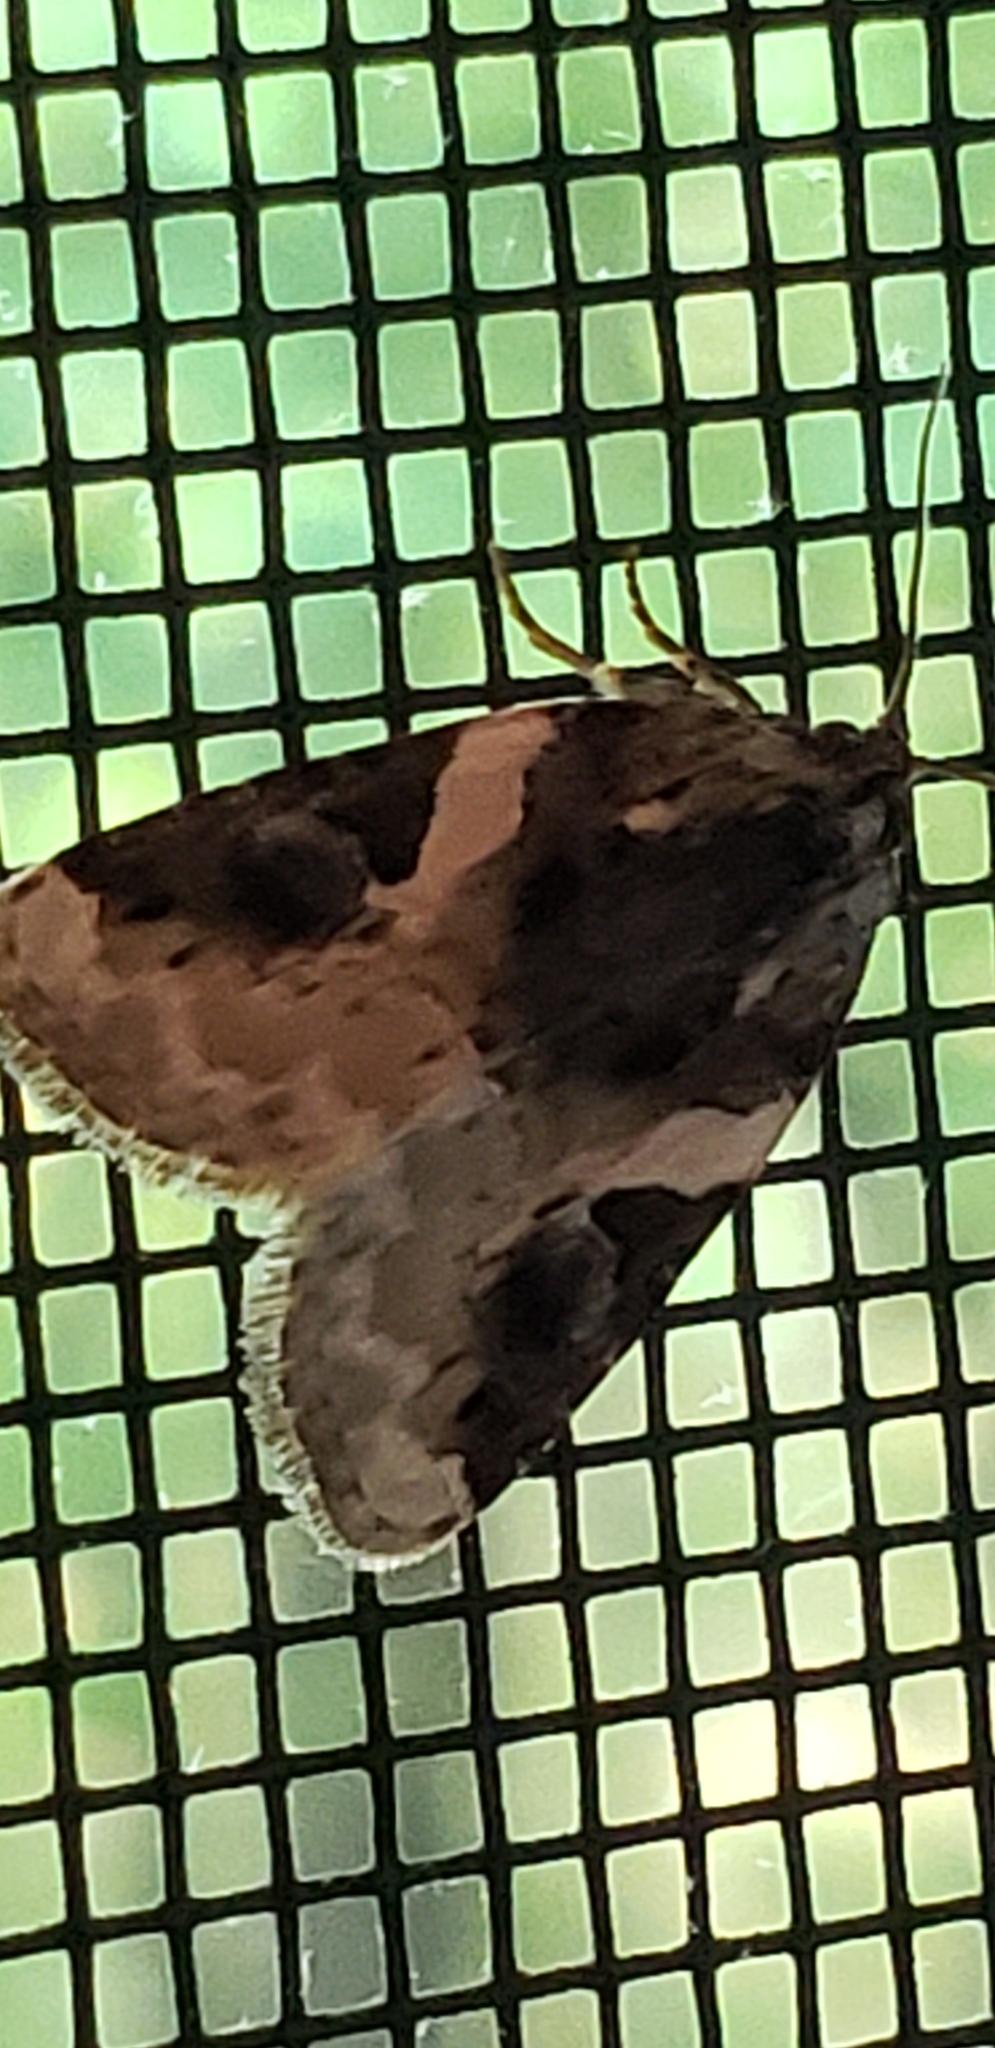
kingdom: Animalia
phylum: Arthropoda
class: Insecta
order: Lepidoptera
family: Noctuidae
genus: Pseudeustrotia
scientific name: Pseudeustrotia carneola
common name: Pink-barred lithacodia moth
